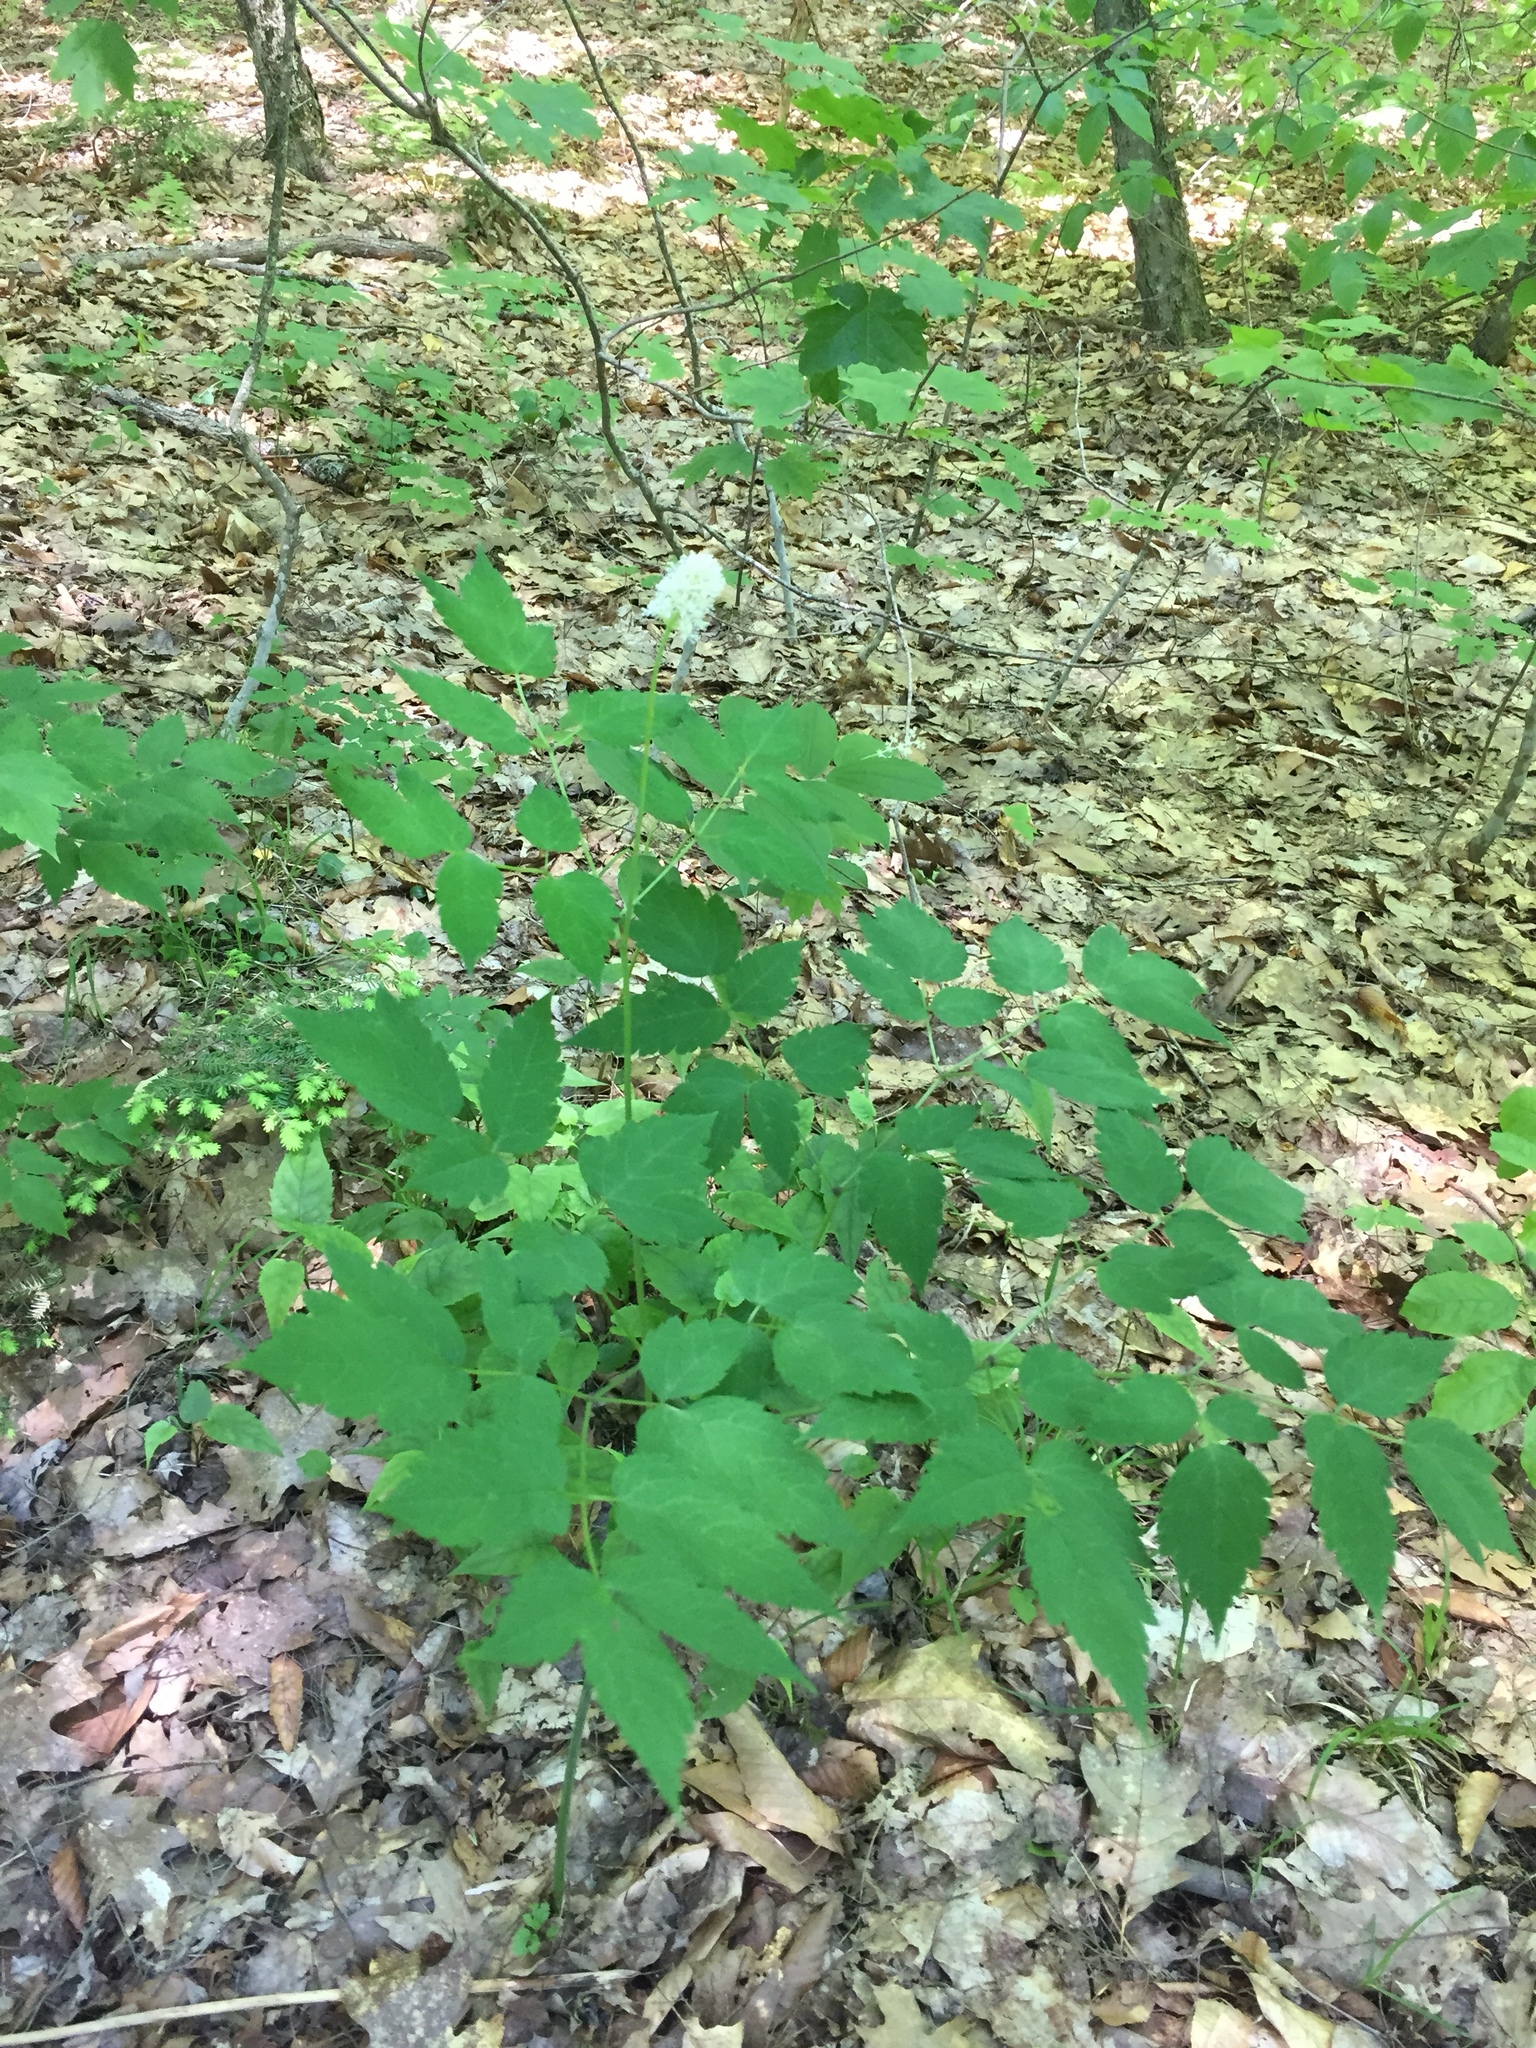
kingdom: Plantae
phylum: Tracheophyta
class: Magnoliopsida
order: Ranunculales
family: Ranunculaceae
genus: Actaea
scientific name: Actaea pachypoda
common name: Doll's-eyes
